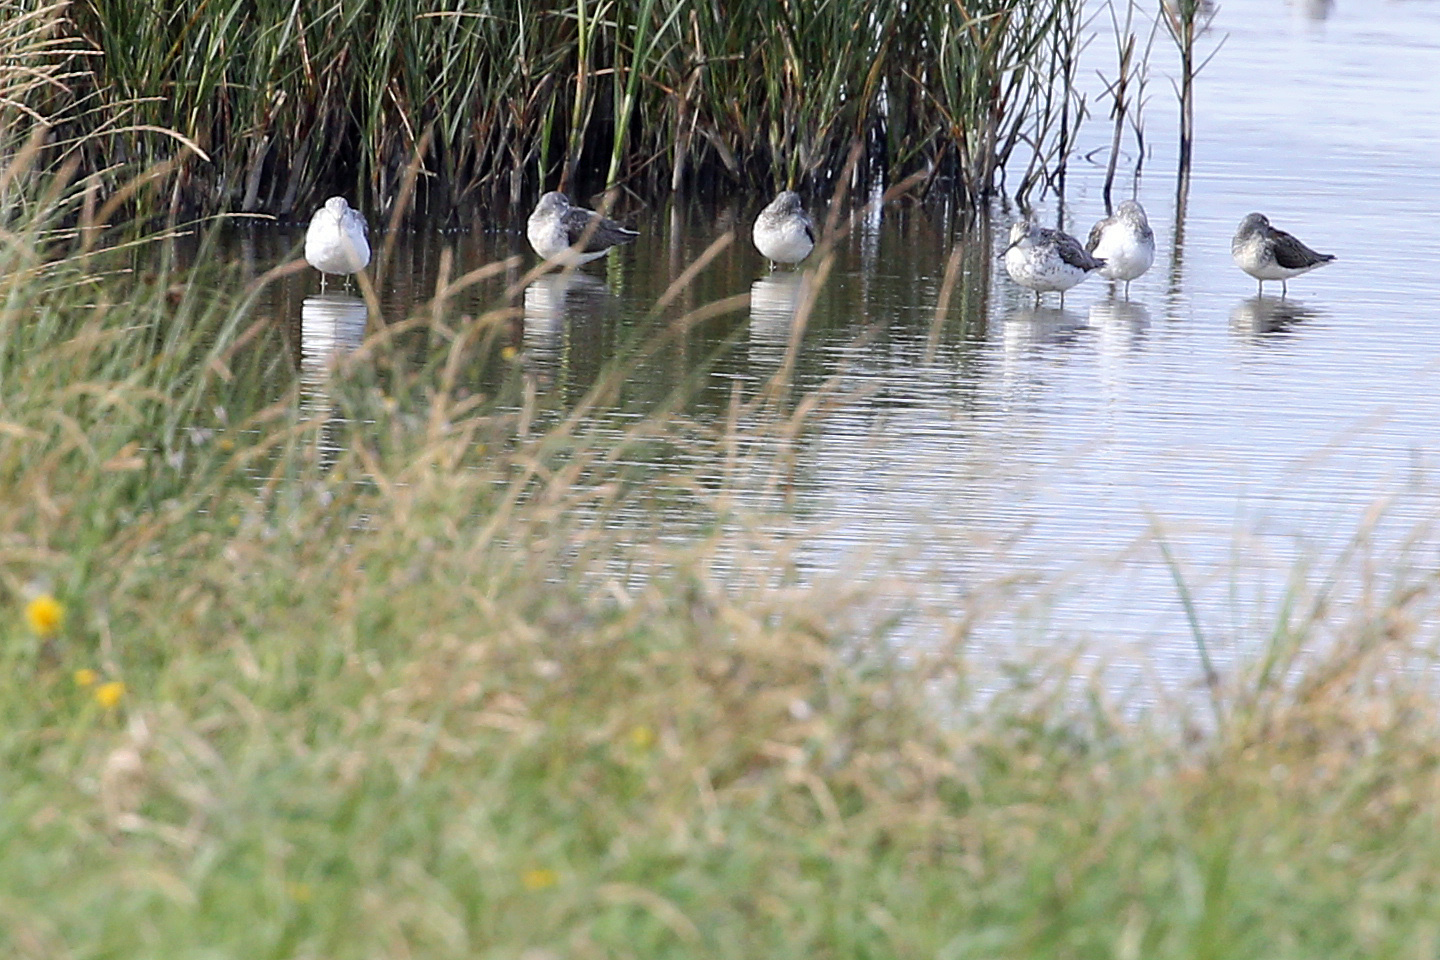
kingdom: Animalia
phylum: Chordata
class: Aves
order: Charadriiformes
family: Scolopacidae
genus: Tringa
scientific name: Tringa nebularia
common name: Common greenshank
